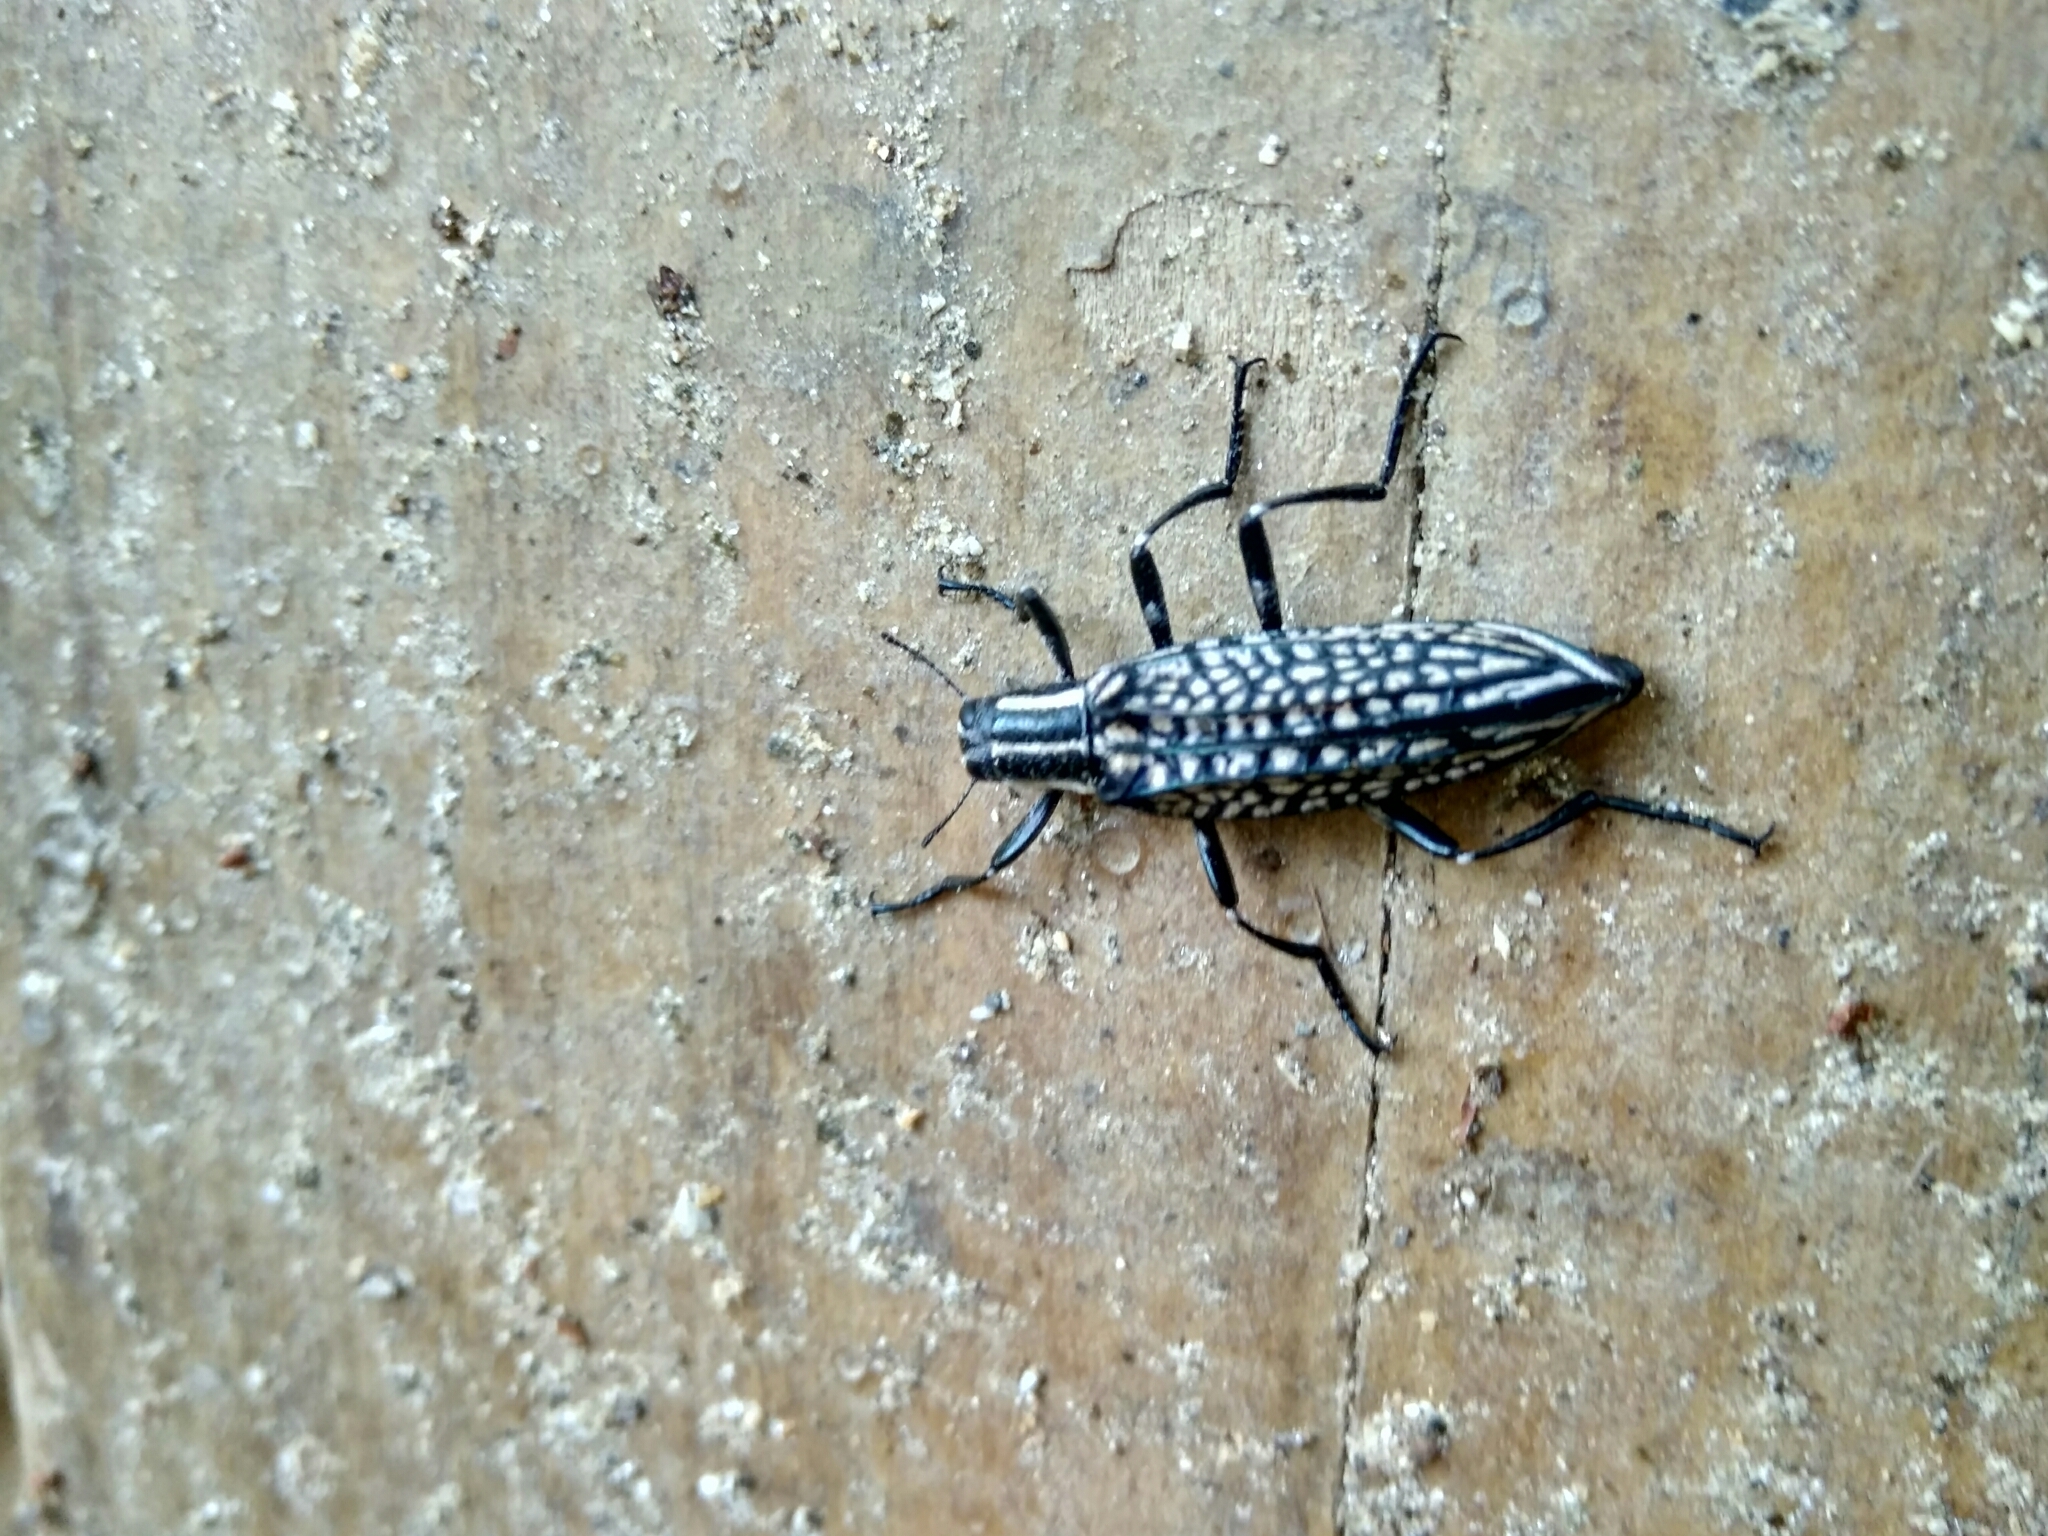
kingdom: Animalia
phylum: Arthropoda
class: Insecta
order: Coleoptera
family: Tenebrionidae
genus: Homocyrtus
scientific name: Homocyrtus
